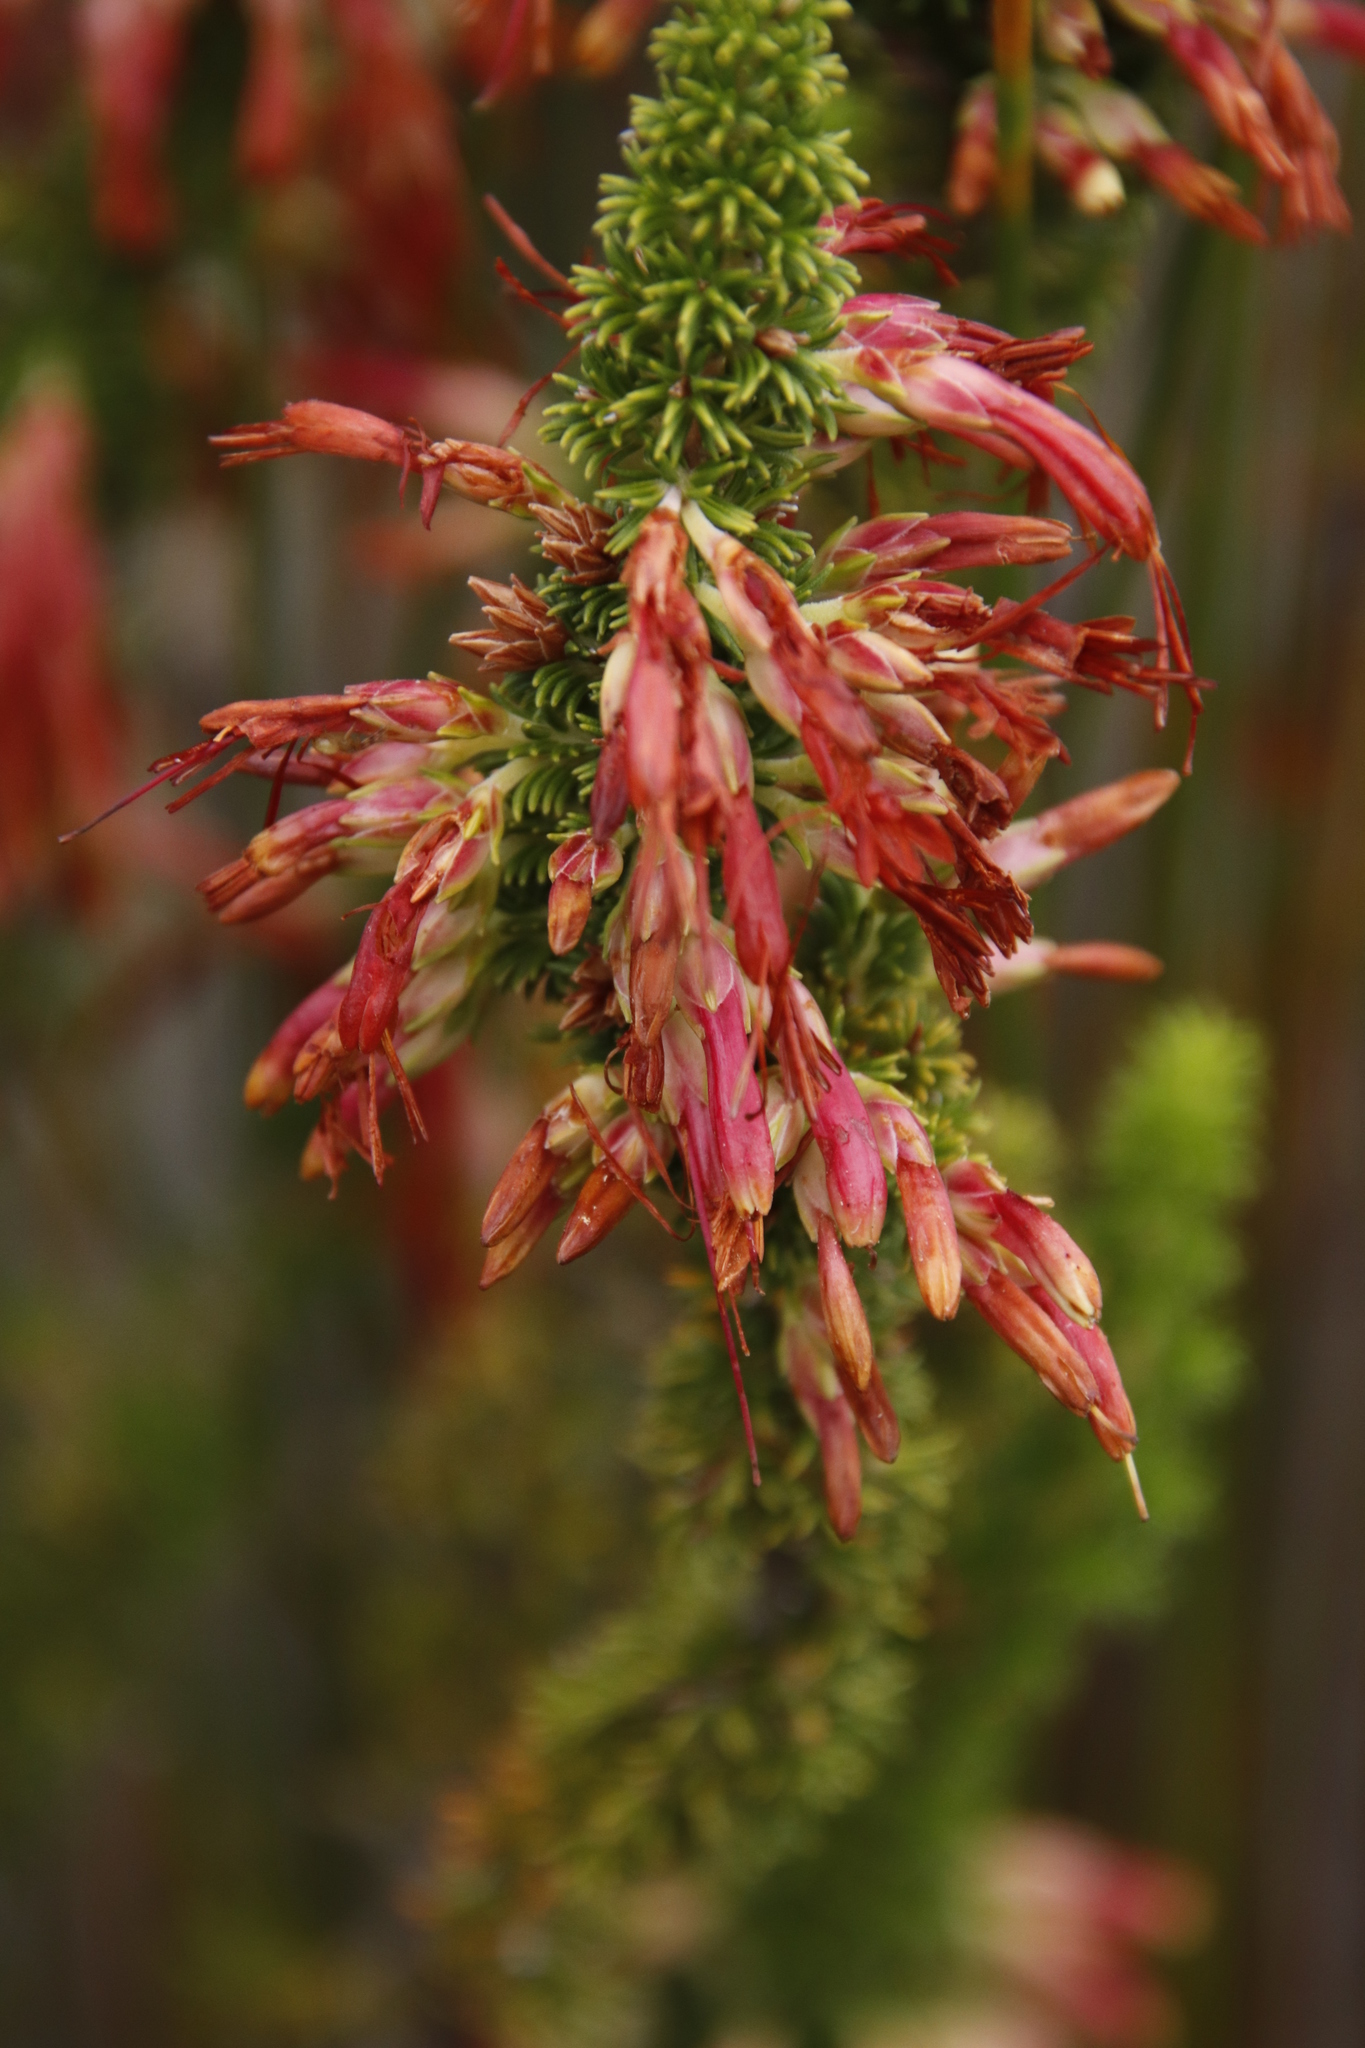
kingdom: Plantae
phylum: Tracheophyta
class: Magnoliopsida
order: Ericales
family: Ericaceae
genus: Erica
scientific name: Erica coccinea
